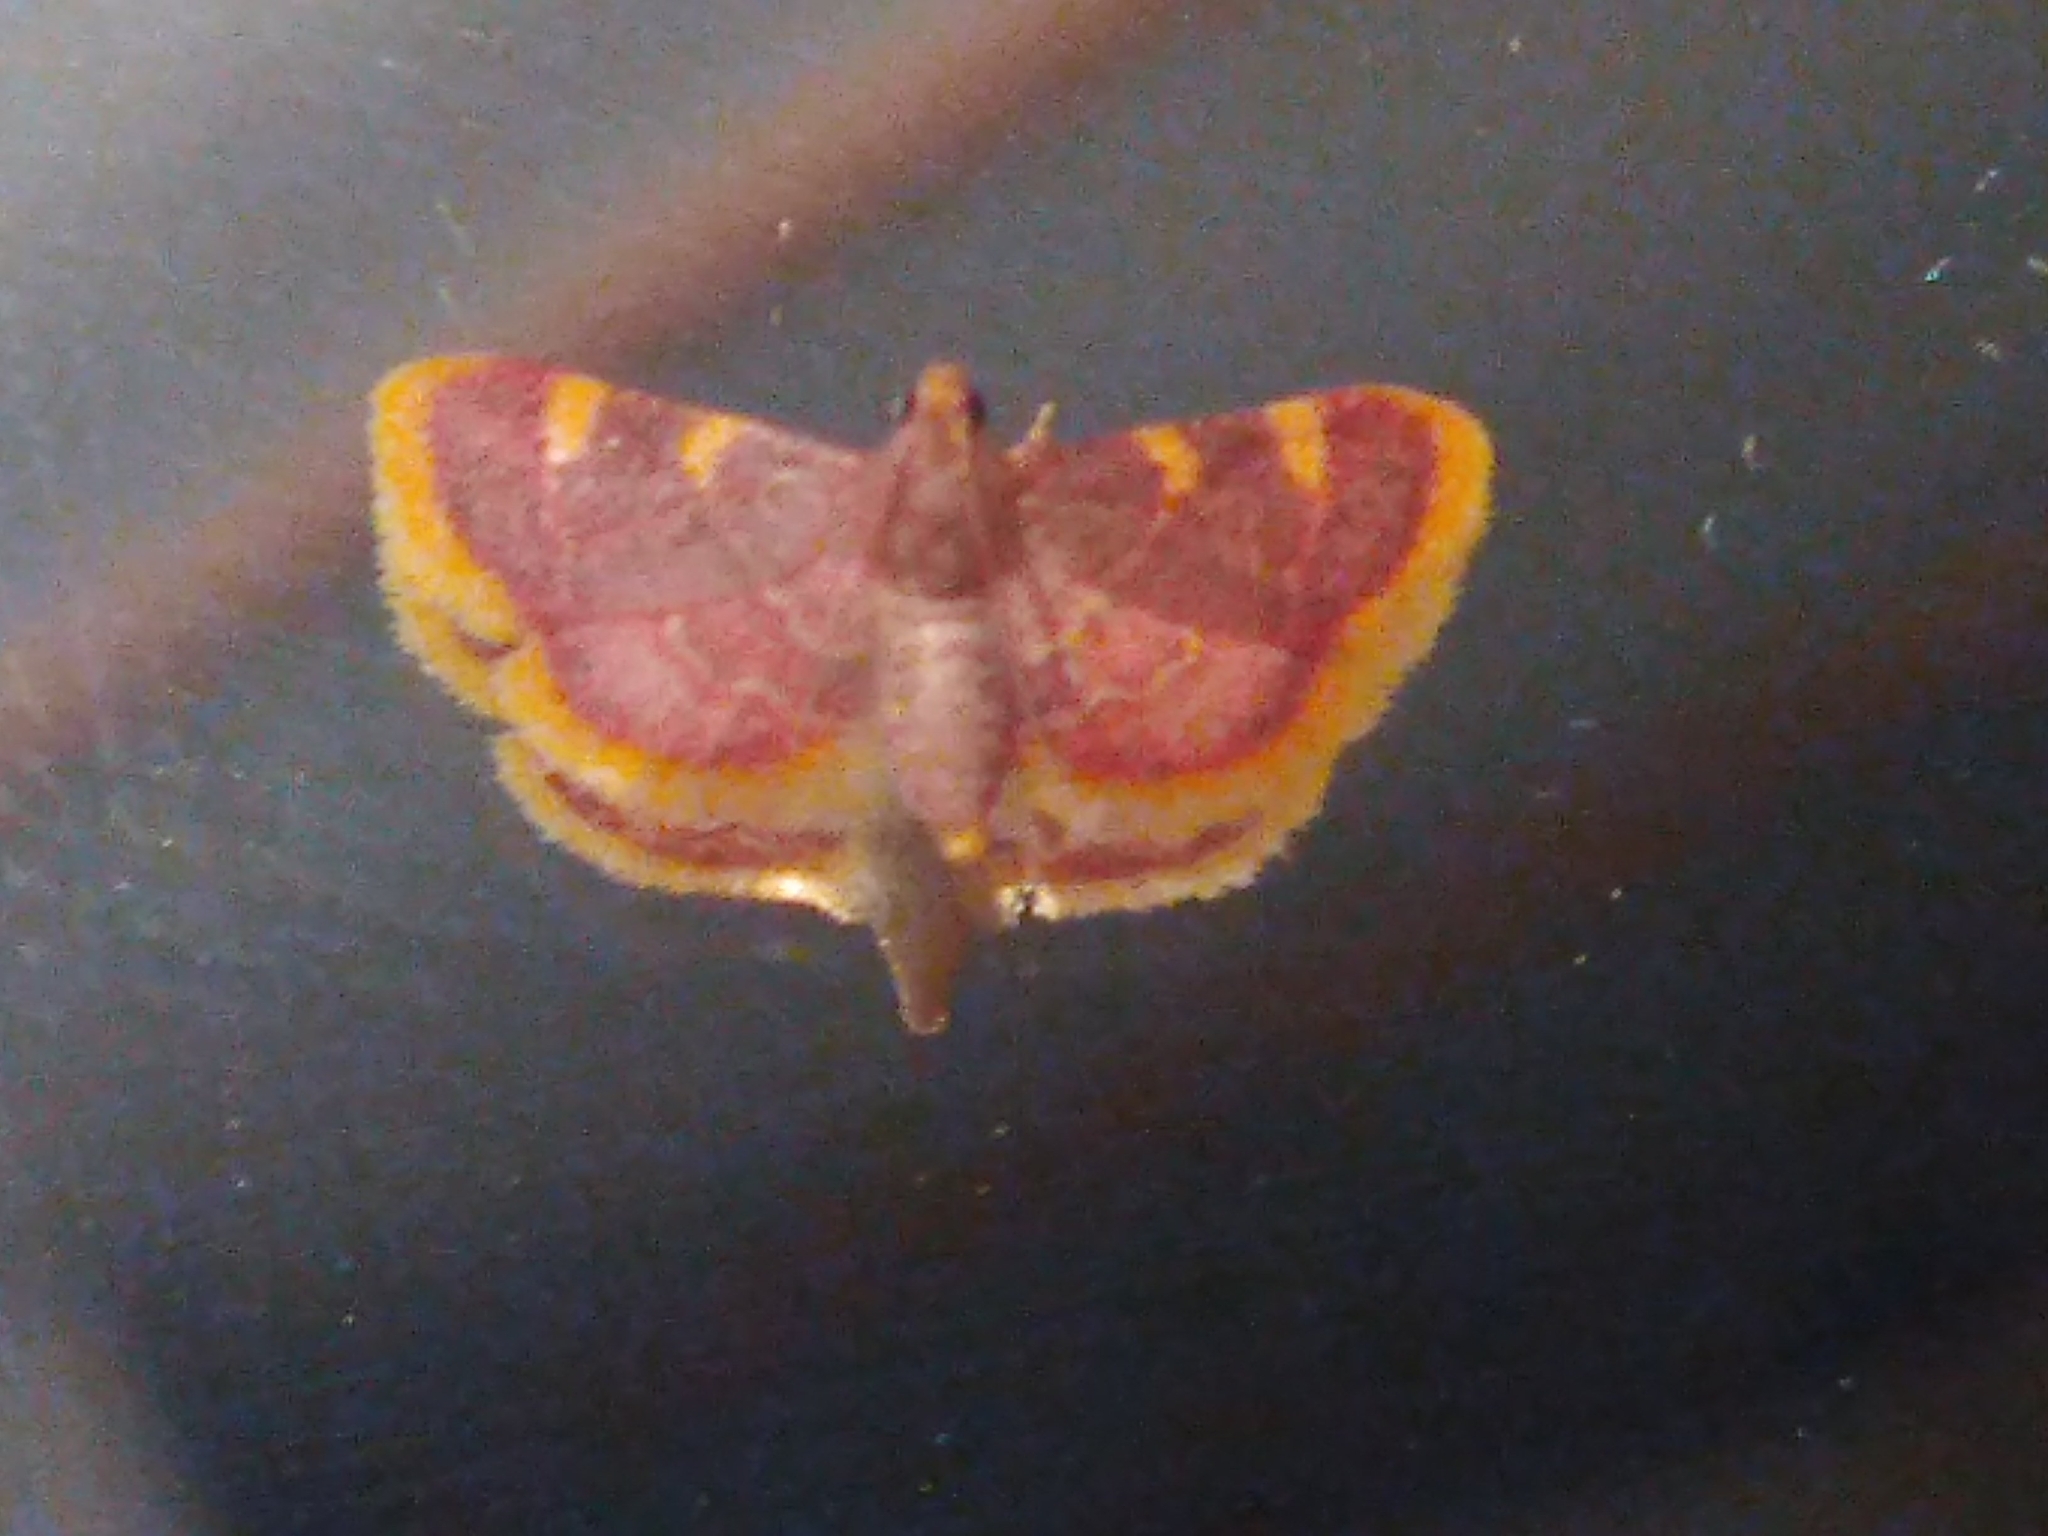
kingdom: Animalia
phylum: Arthropoda
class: Insecta
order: Lepidoptera
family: Pyralidae
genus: Hypsopygia
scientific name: Hypsopygia costalis
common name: Gold triangle
